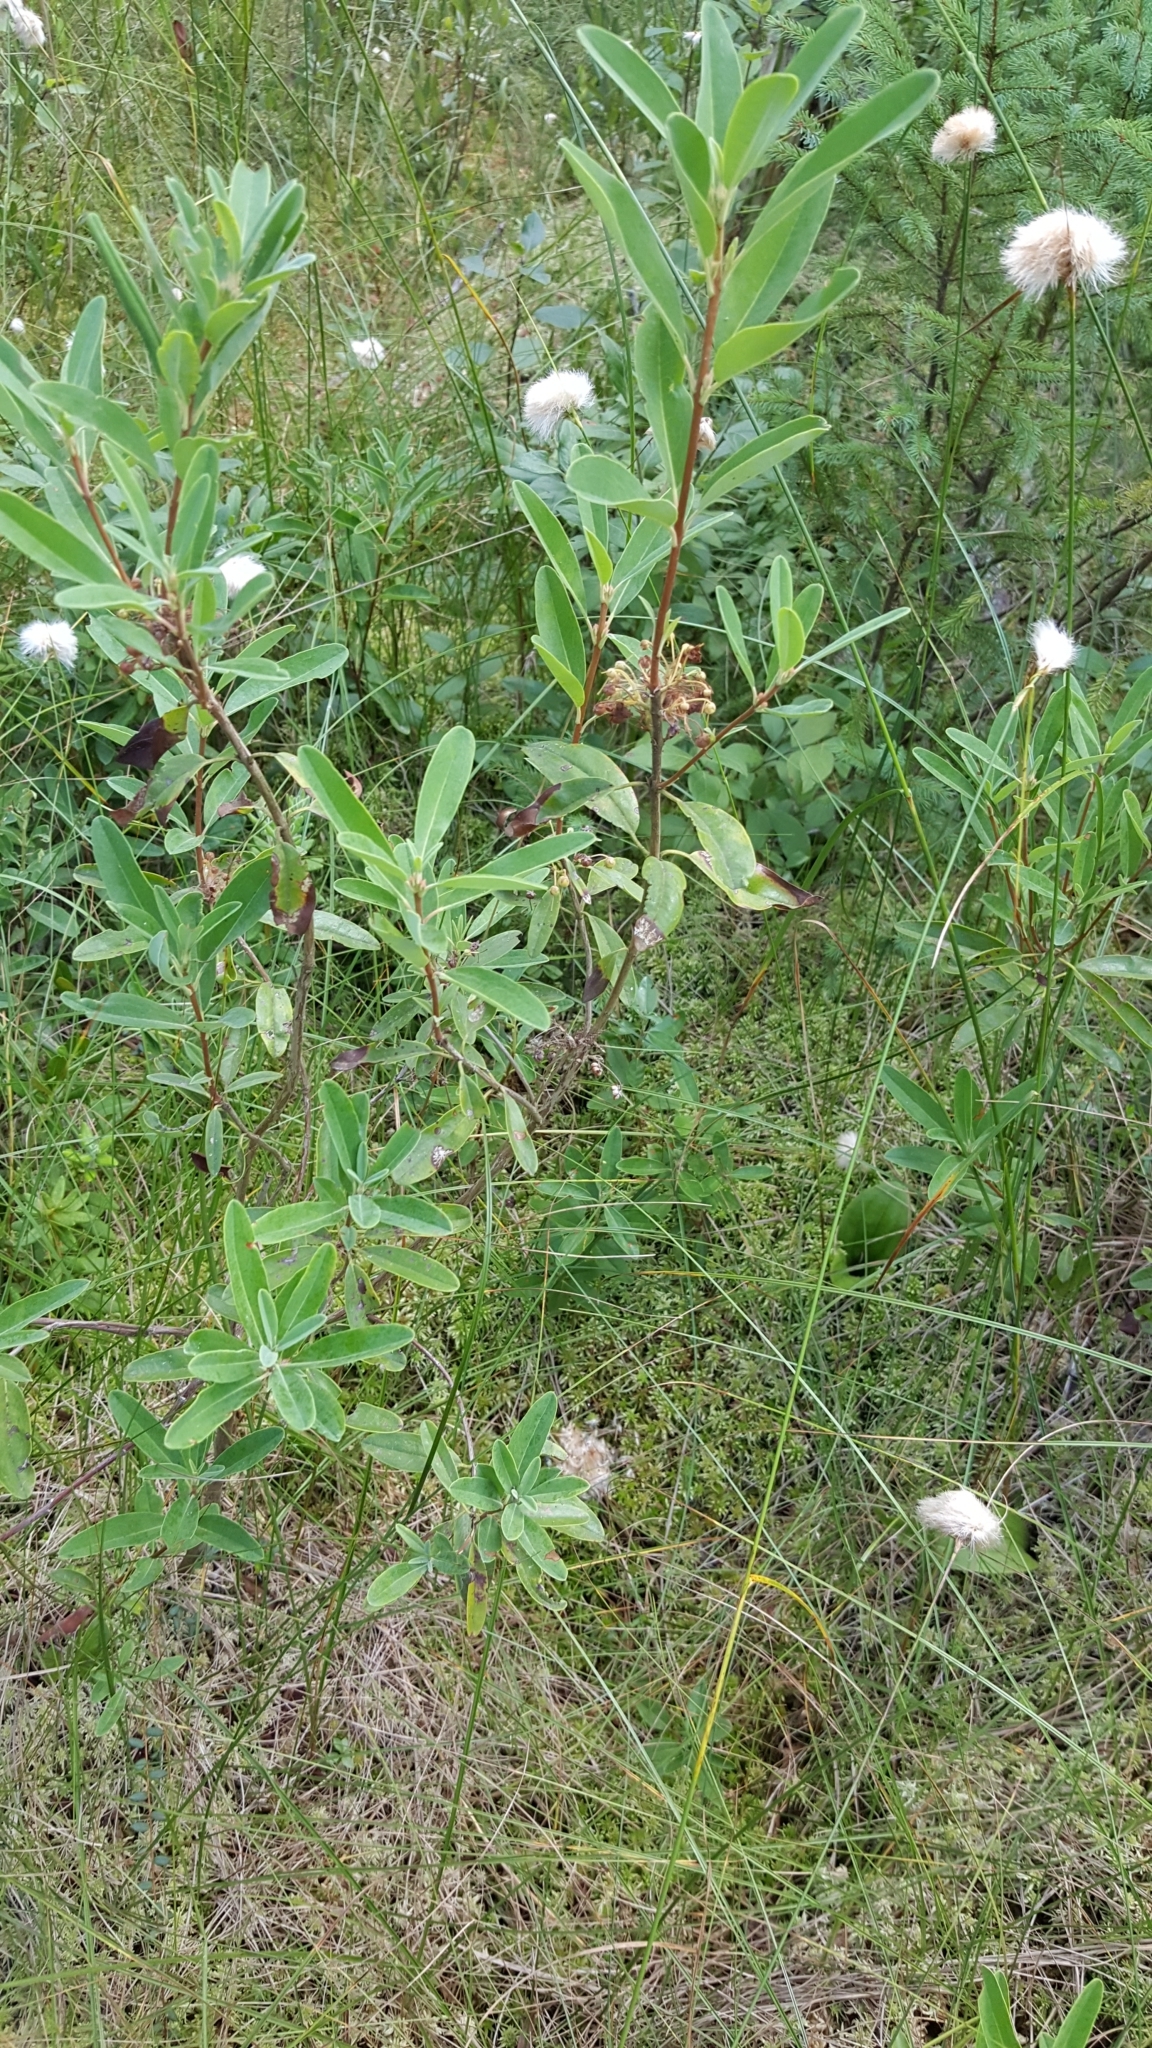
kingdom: Plantae
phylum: Tracheophyta
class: Magnoliopsida
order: Ericales
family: Ericaceae
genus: Kalmia
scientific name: Kalmia angustifolia
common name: Sheep-laurel
